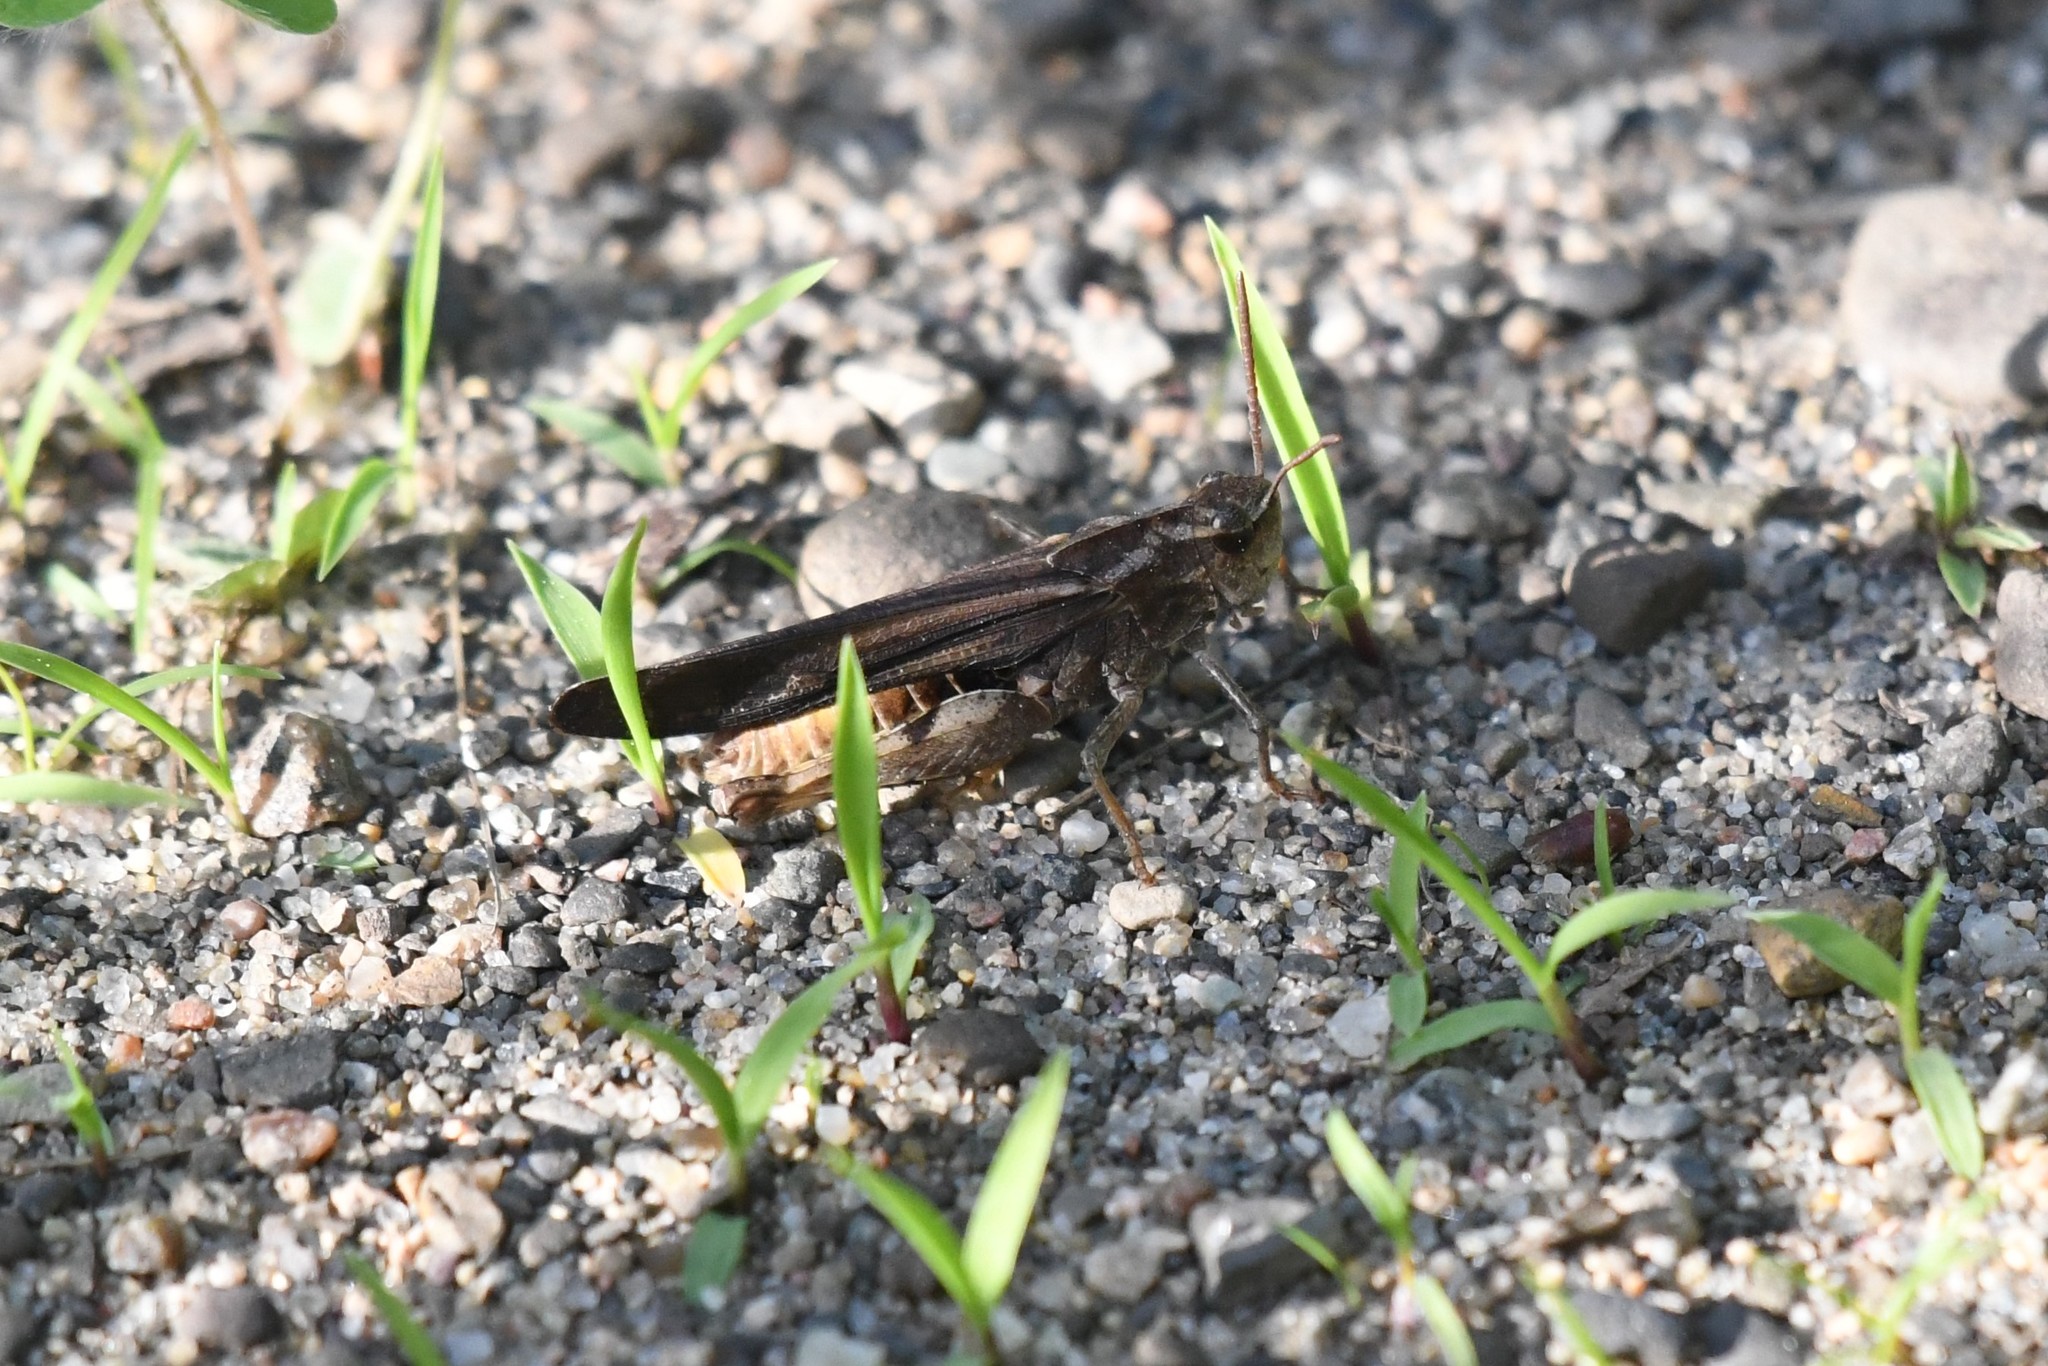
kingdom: Animalia
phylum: Arthropoda
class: Insecta
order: Orthoptera
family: Acrididae
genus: Chortophaga
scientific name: Chortophaga viridifasciata
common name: Green-striped grasshopper
